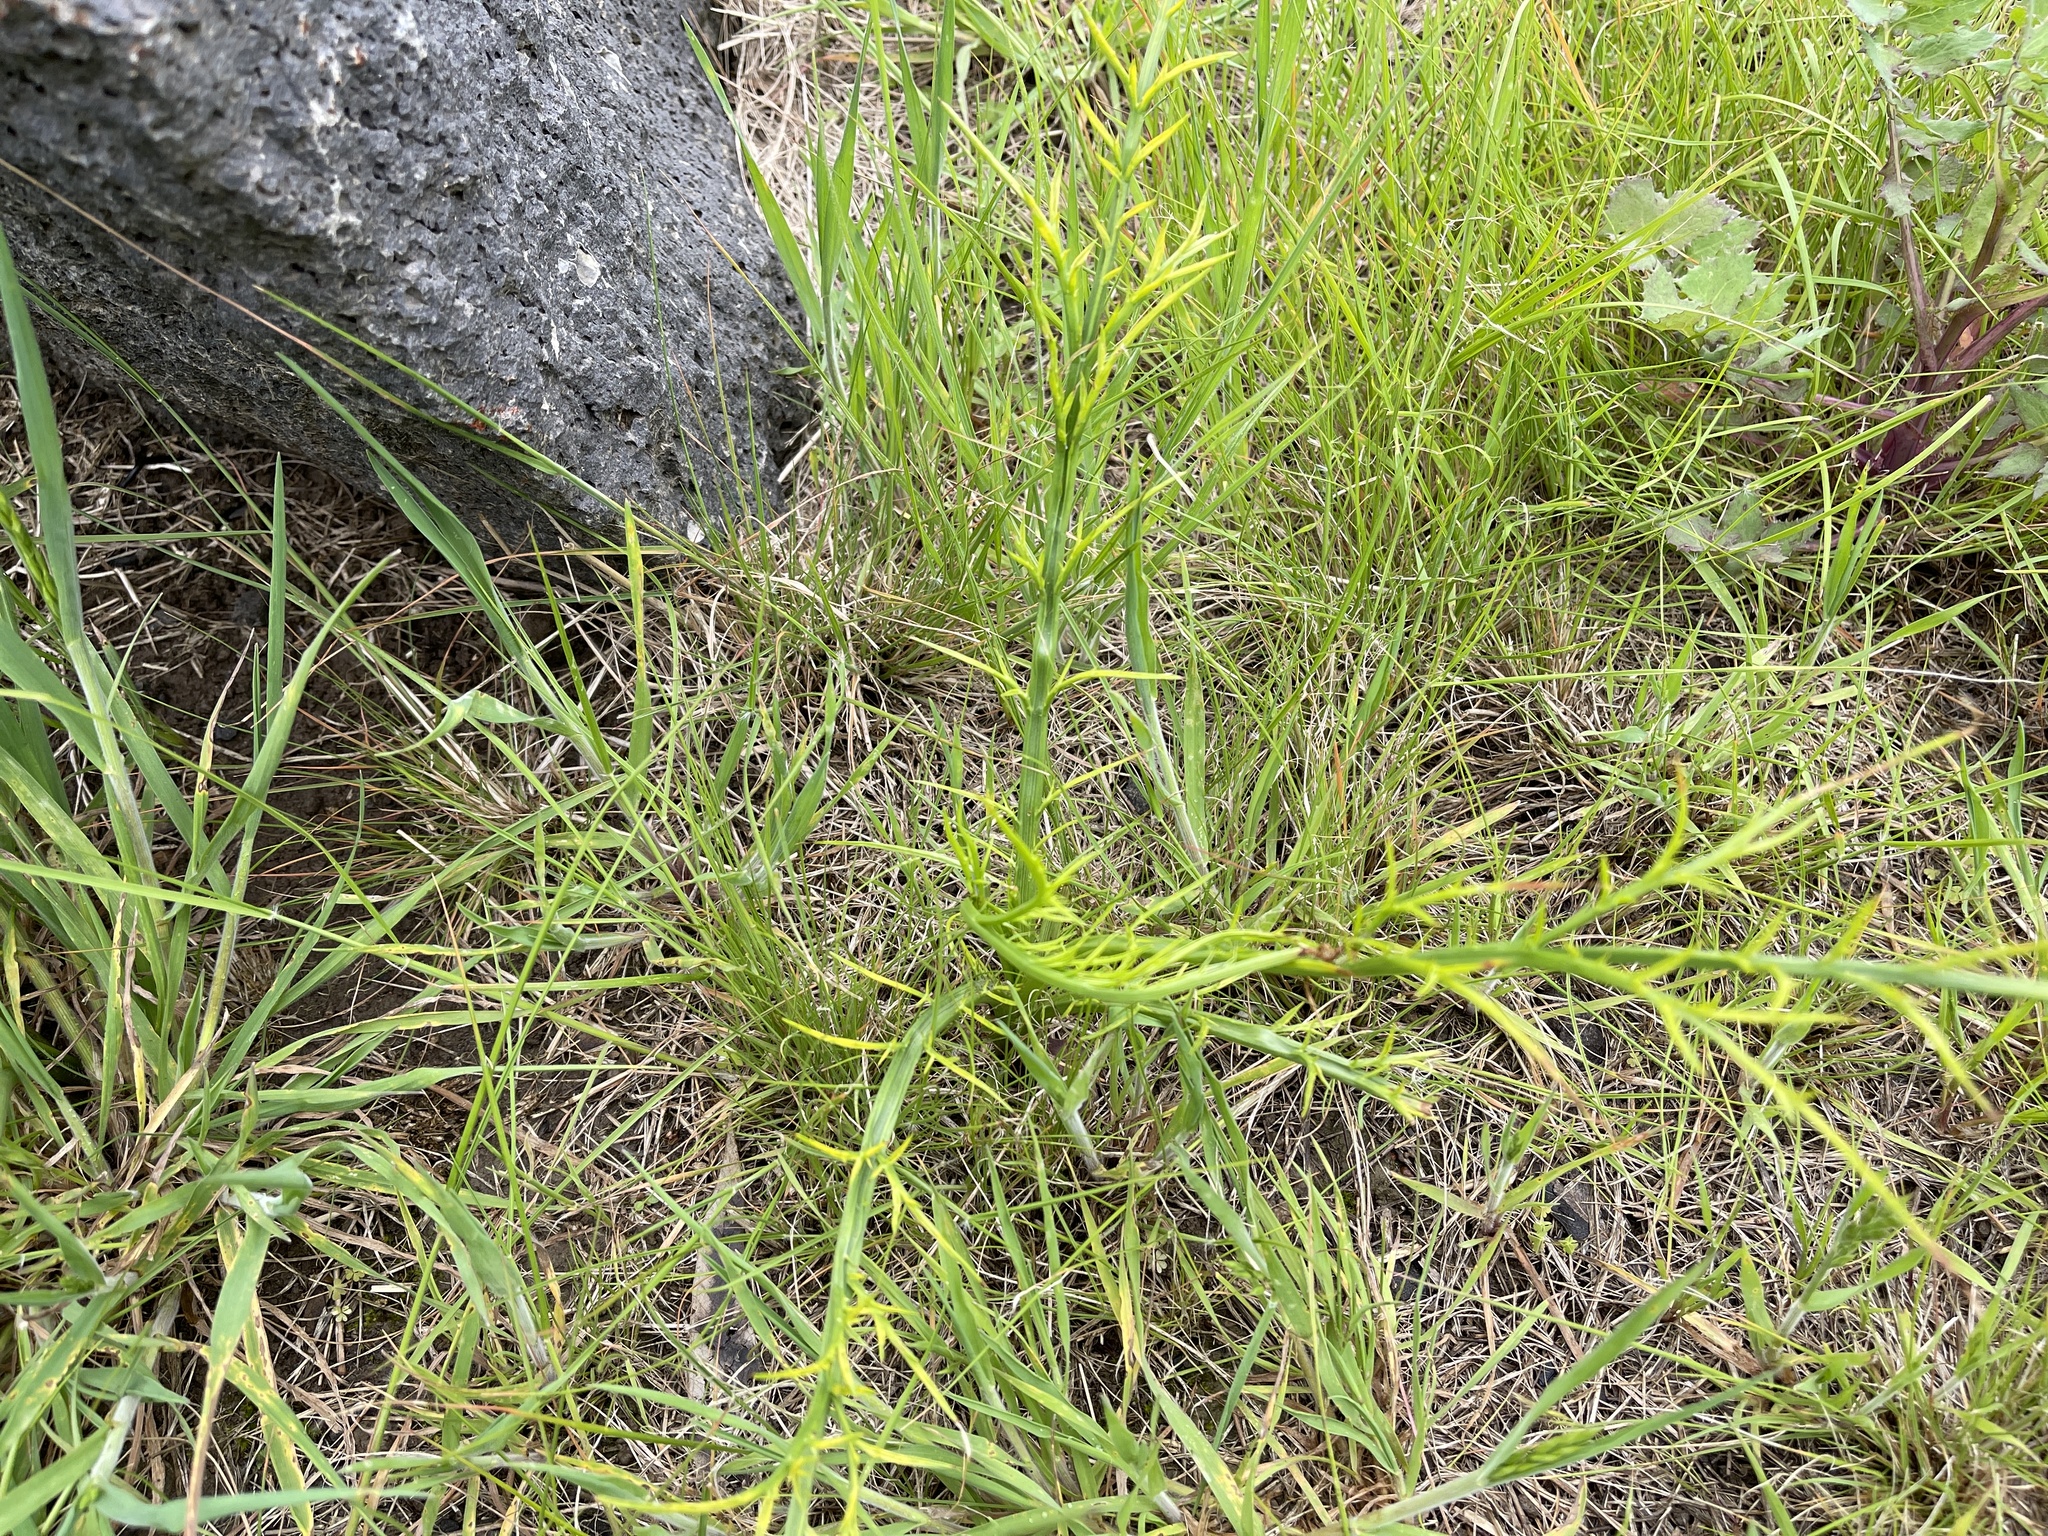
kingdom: Plantae
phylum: Tracheophyta
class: Magnoliopsida
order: Apiales
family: Apiaceae
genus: Eryngium
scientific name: Eryngium ovinum
